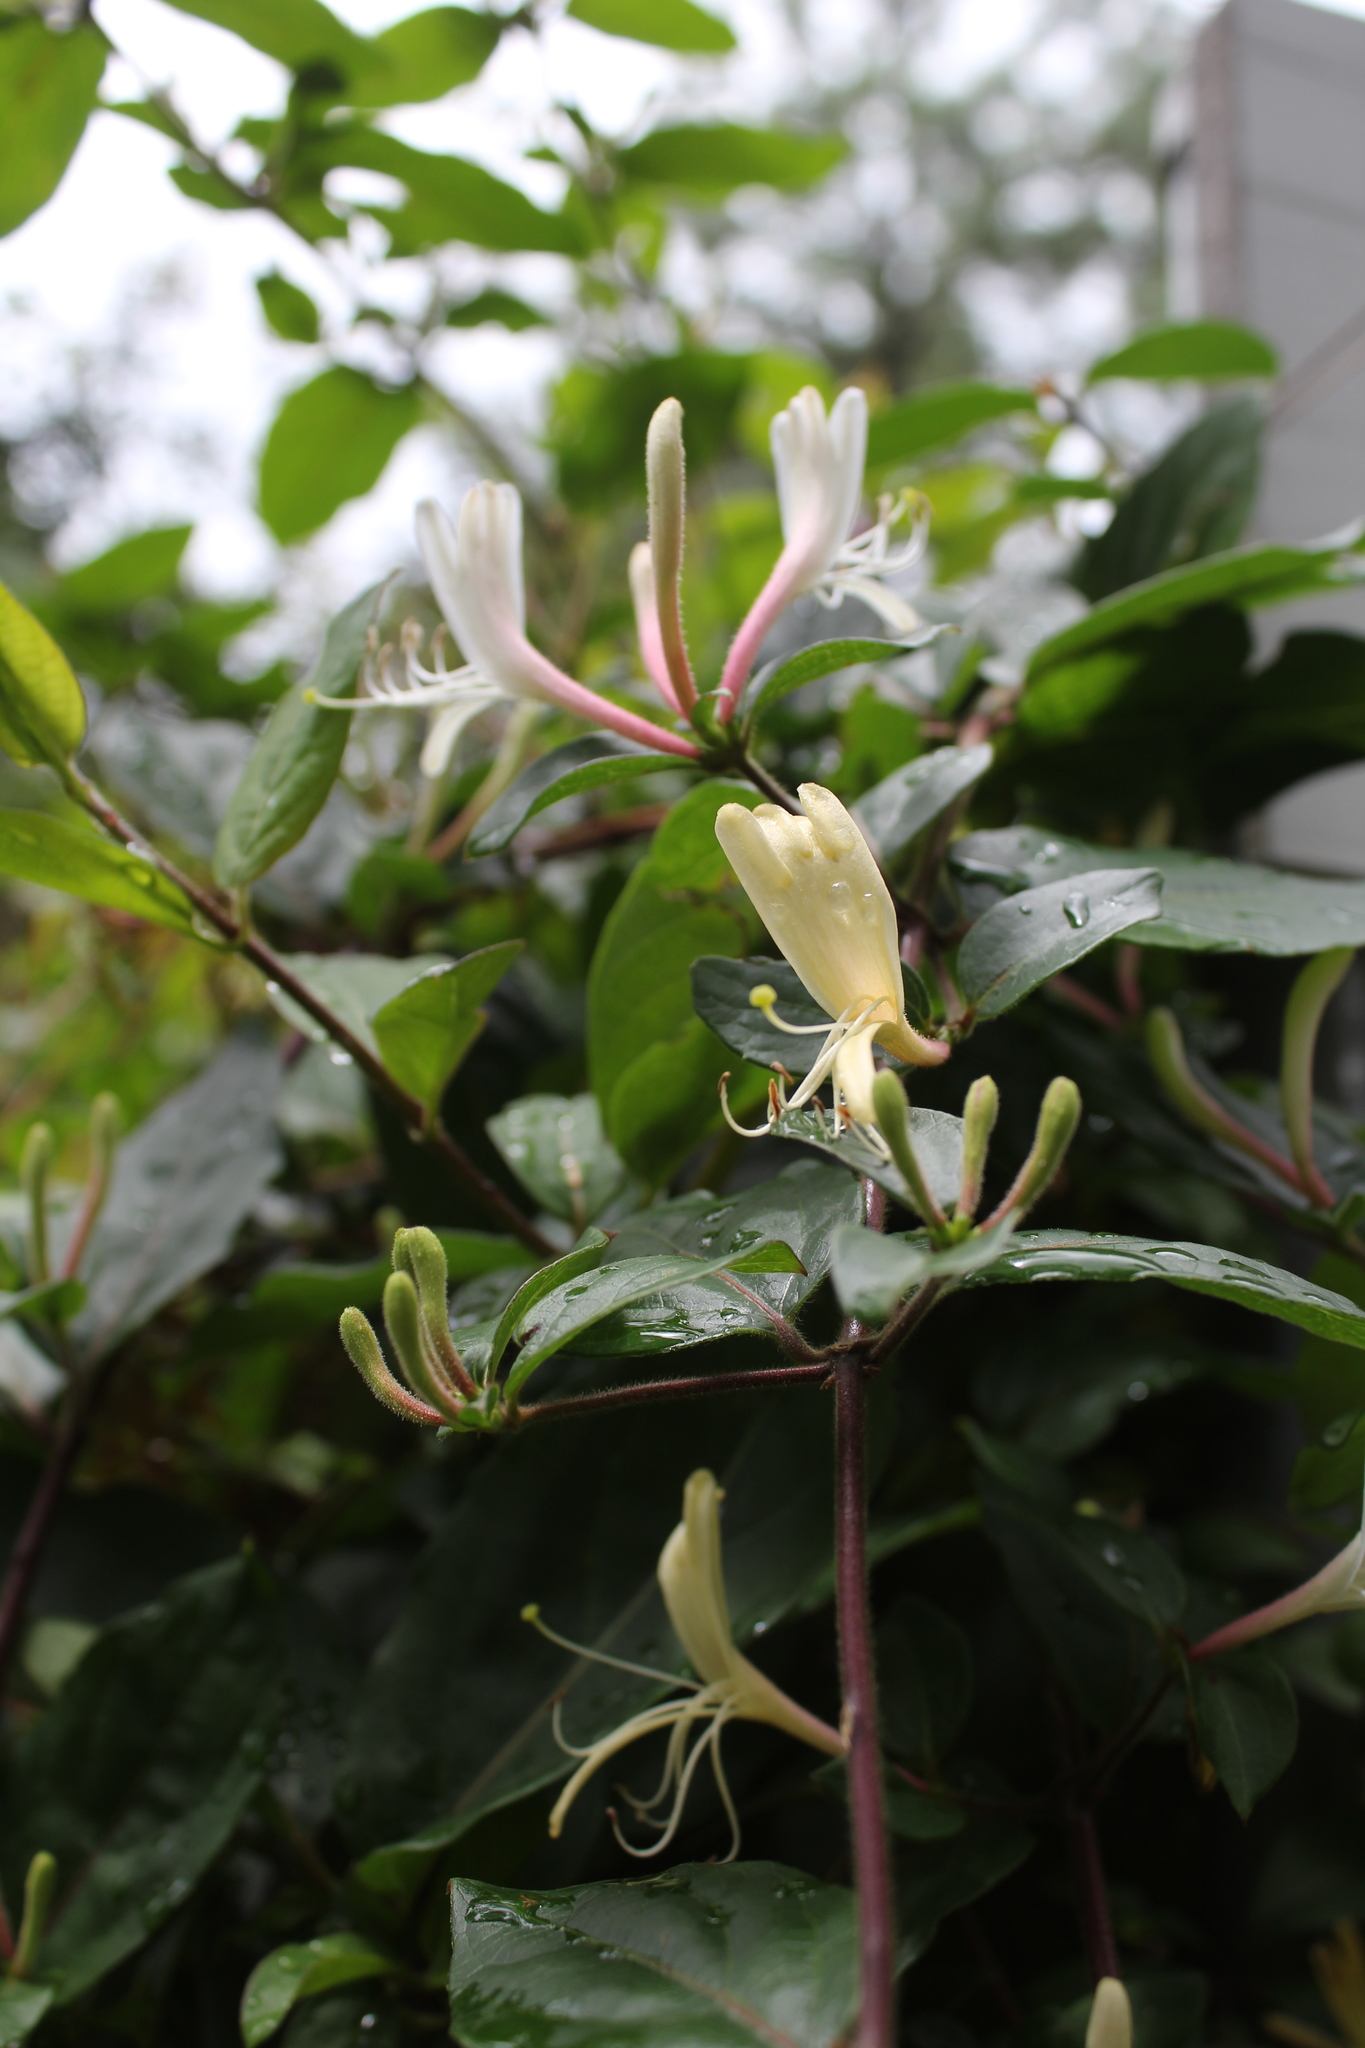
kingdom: Plantae
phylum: Tracheophyta
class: Magnoliopsida
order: Dipsacales
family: Caprifoliaceae
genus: Lonicera
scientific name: Lonicera japonica
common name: Japanese honeysuckle
